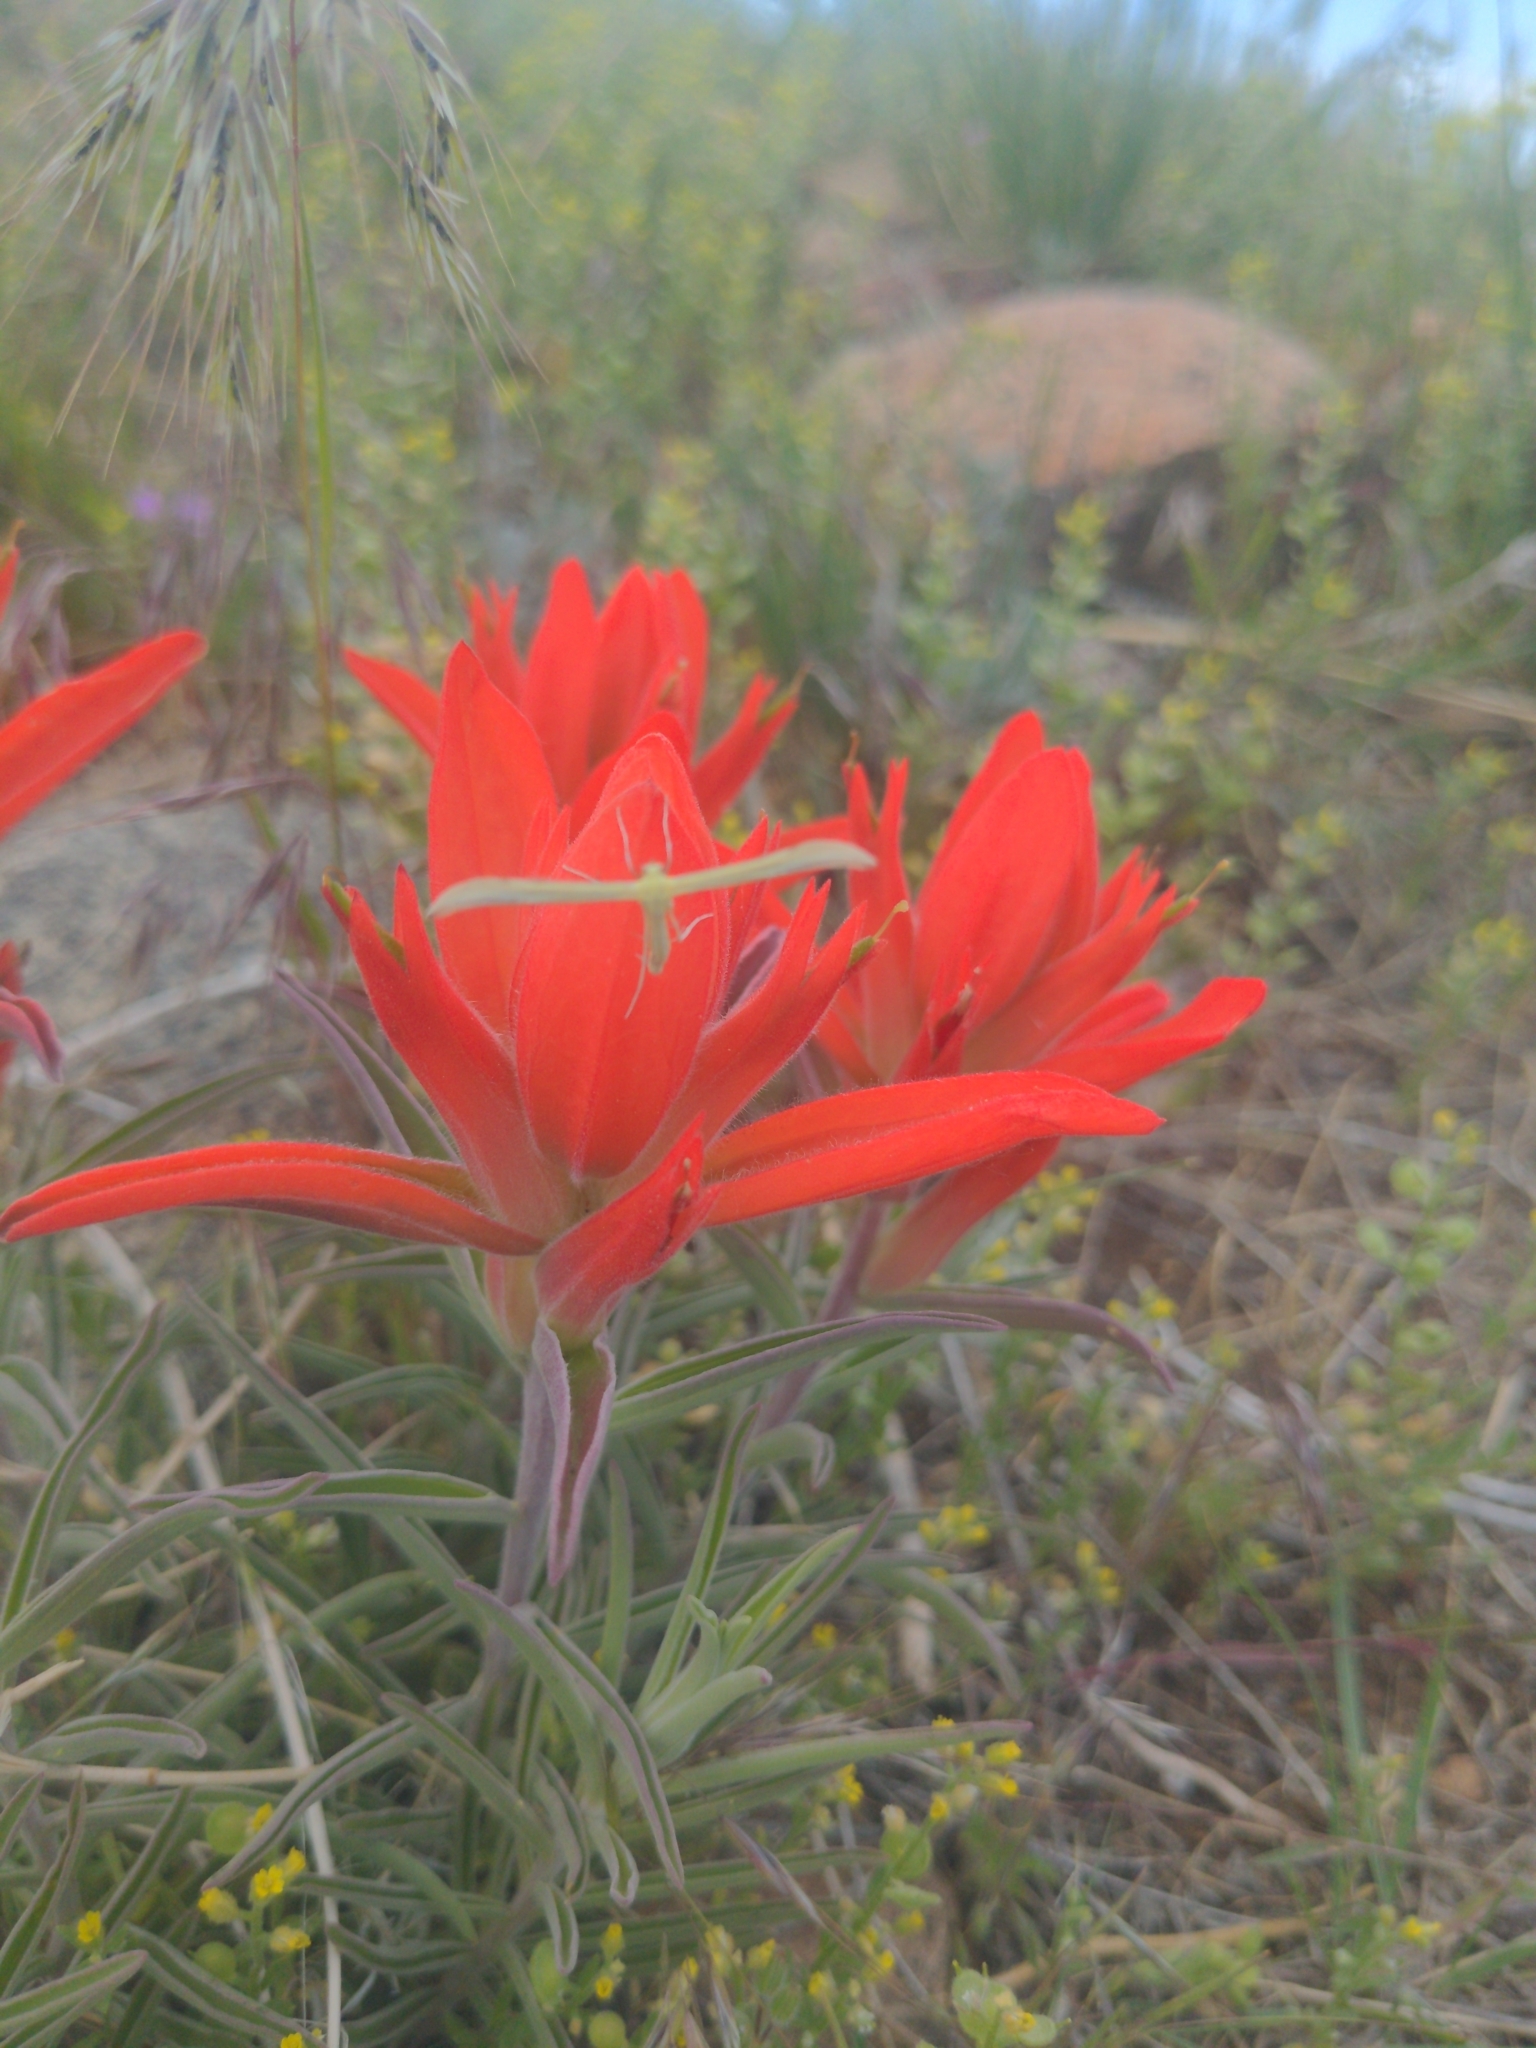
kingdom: Plantae
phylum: Tracheophyta
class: Magnoliopsida
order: Lamiales
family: Orobanchaceae
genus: Castilleja
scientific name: Castilleja integra
